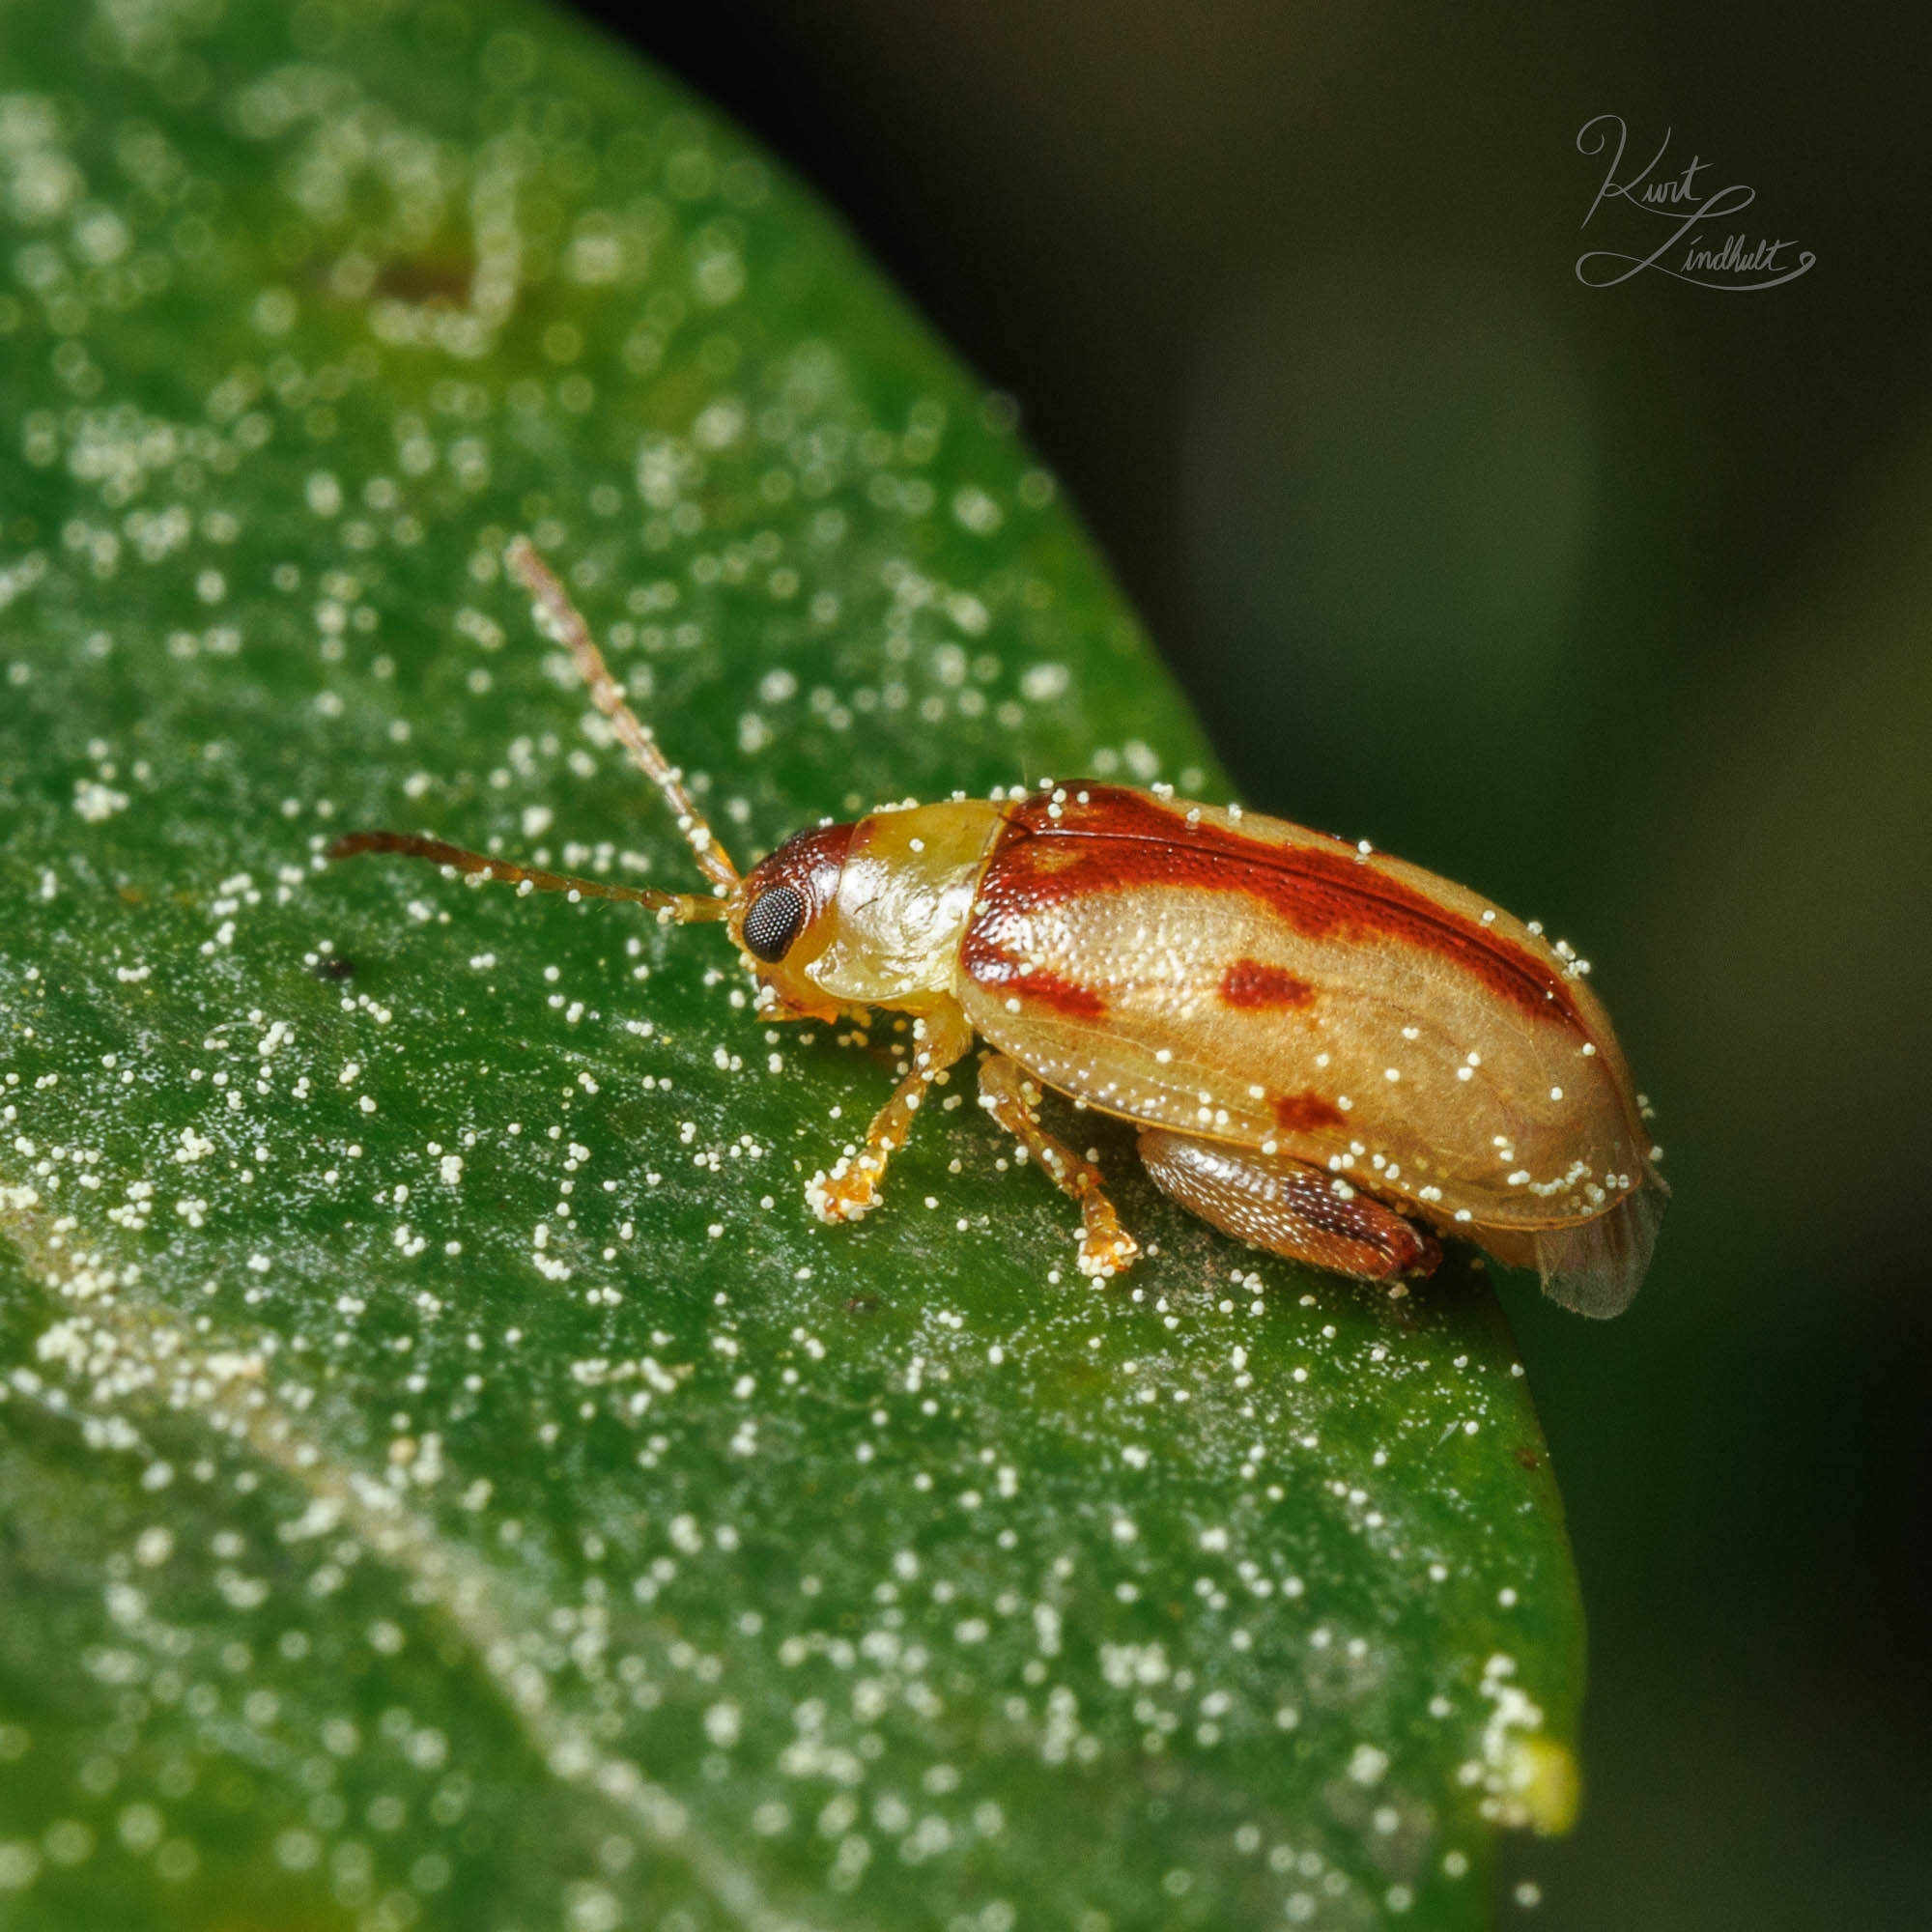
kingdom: Animalia
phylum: Arthropoda
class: Insecta
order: Coleoptera
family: Chrysomelidae
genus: Capraita
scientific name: Capraita suturalis
